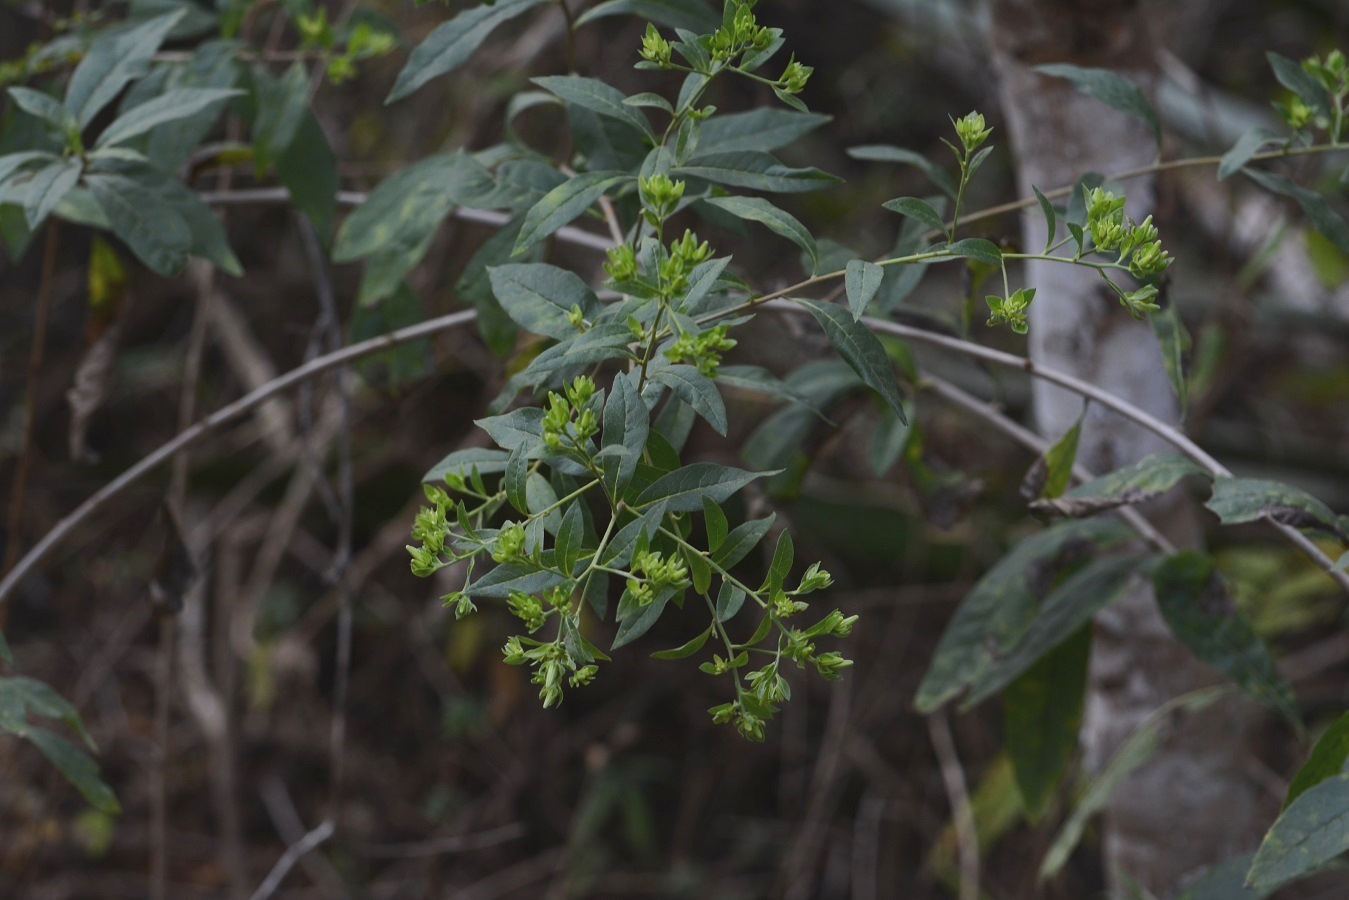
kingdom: Plantae
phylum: Tracheophyta
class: Magnoliopsida
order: Asterales
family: Asteraceae
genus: Trixis
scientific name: Trixis inula
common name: Tropical threefold
